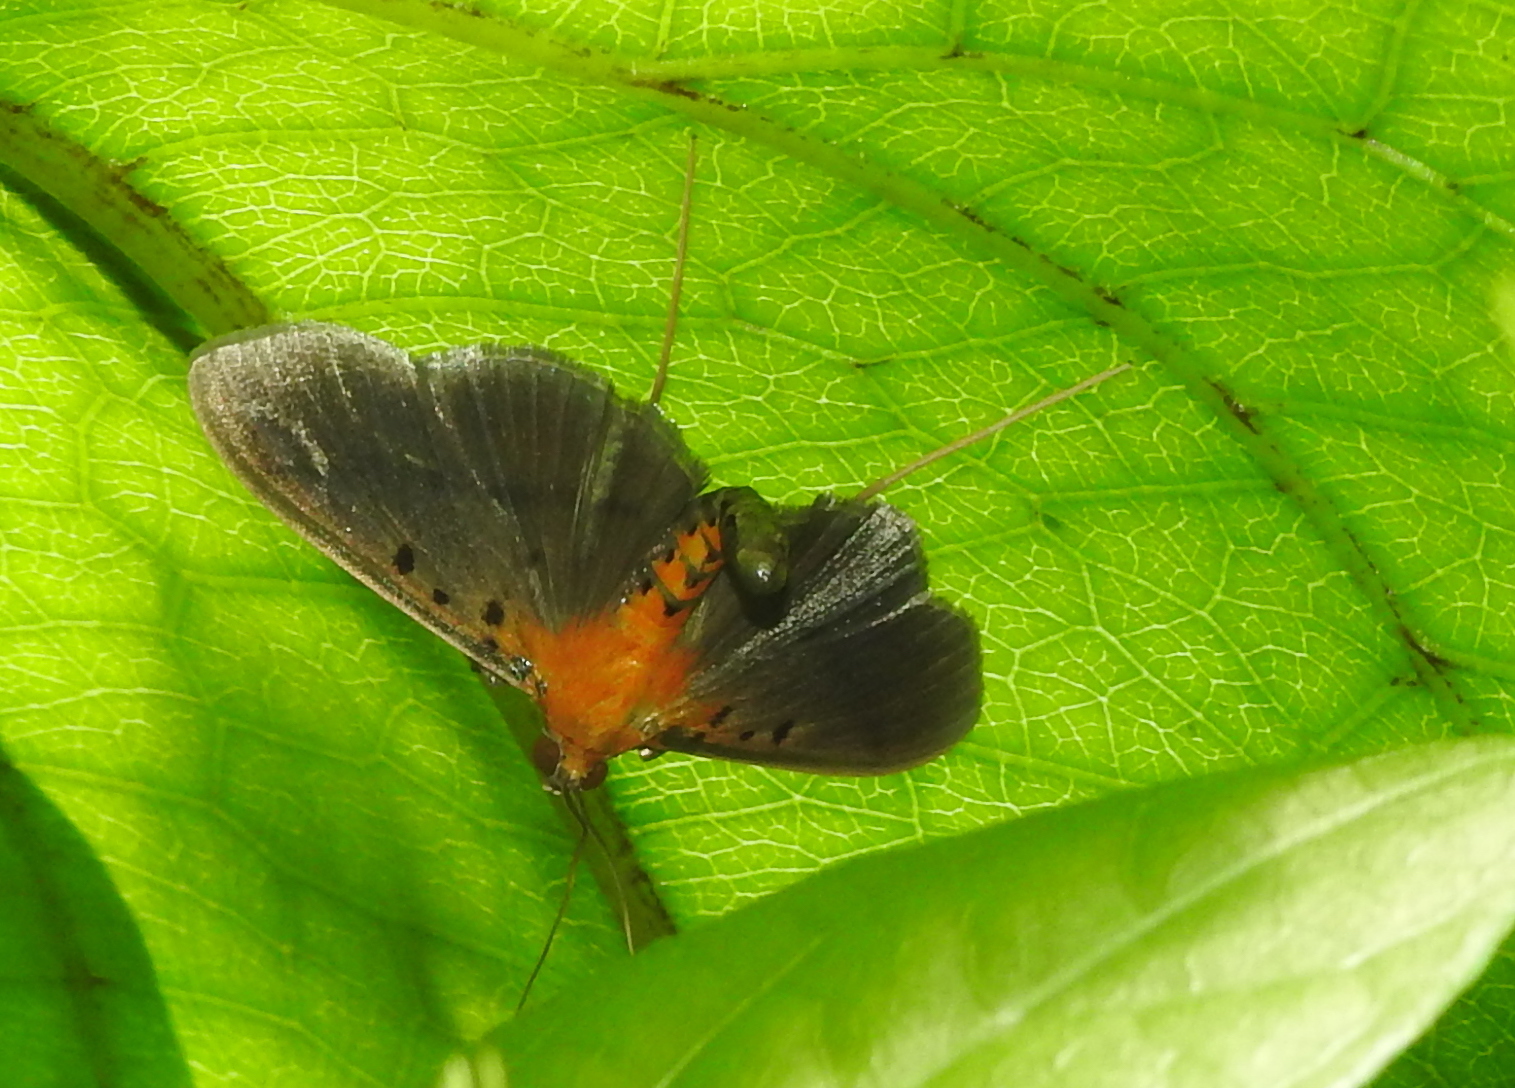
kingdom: Animalia
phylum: Arthropoda
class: Insecta
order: Lepidoptera
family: Crambidae
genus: Filodes
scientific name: Filodes fulvidorsalis
